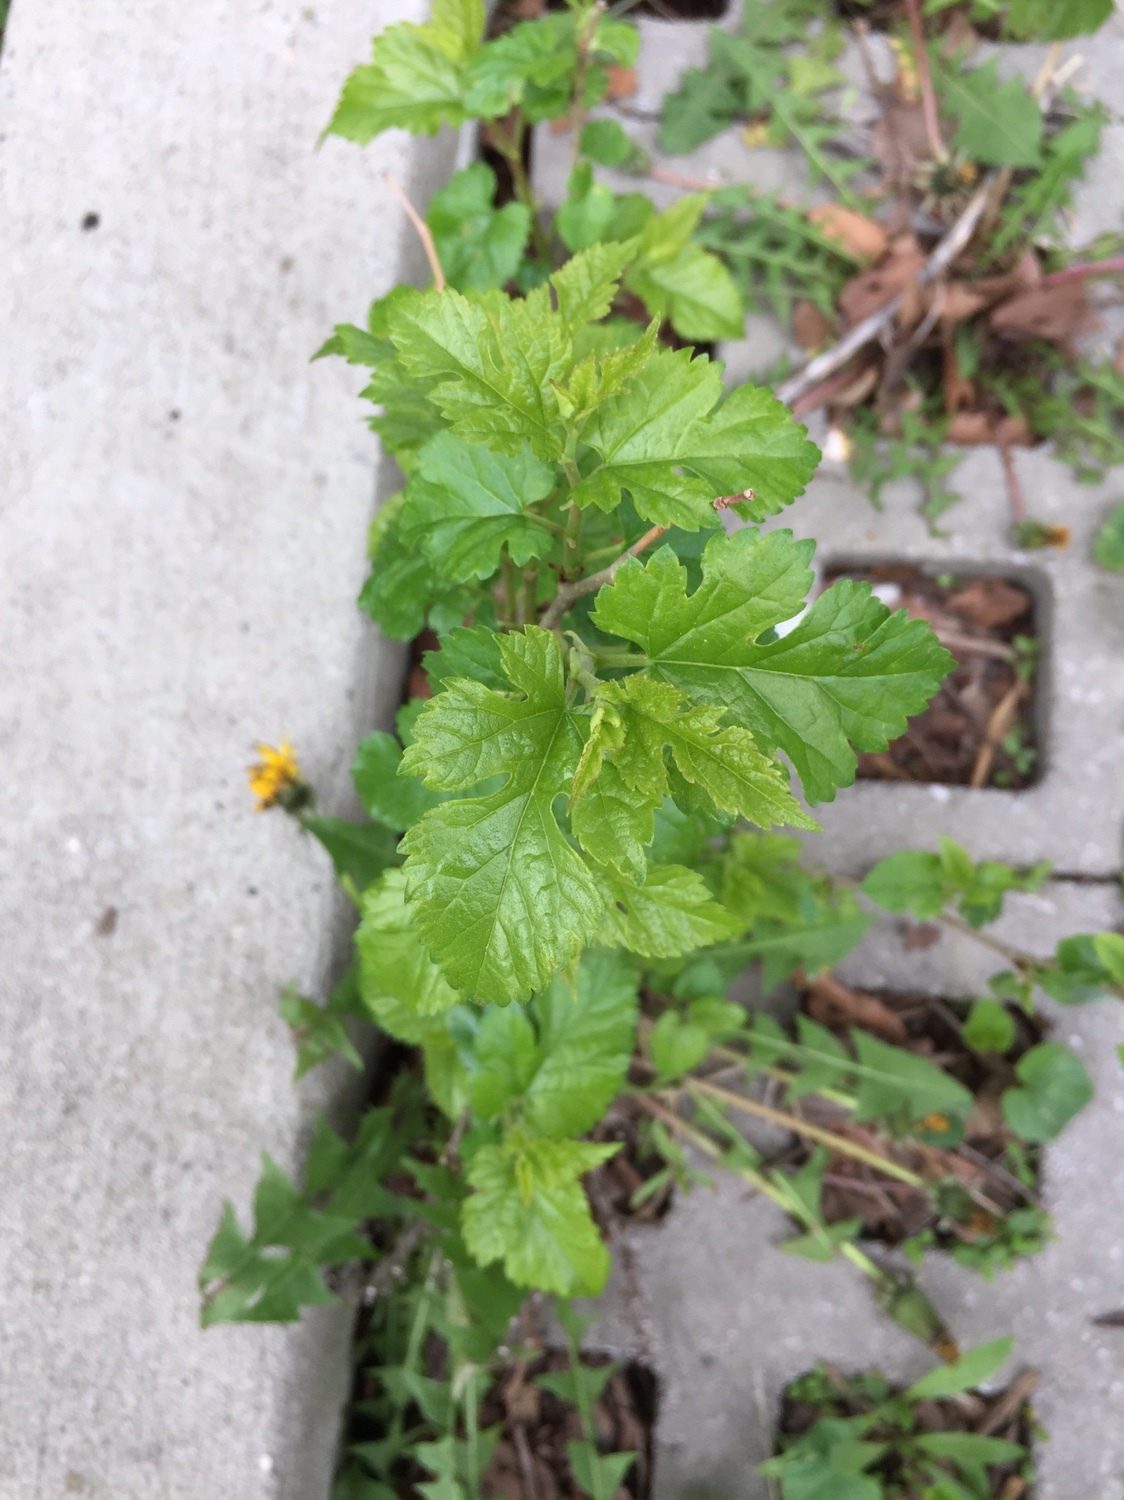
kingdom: Plantae
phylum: Tracheophyta
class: Magnoliopsida
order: Rosales
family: Moraceae
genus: Morus
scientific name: Morus alba
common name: White mulberry
